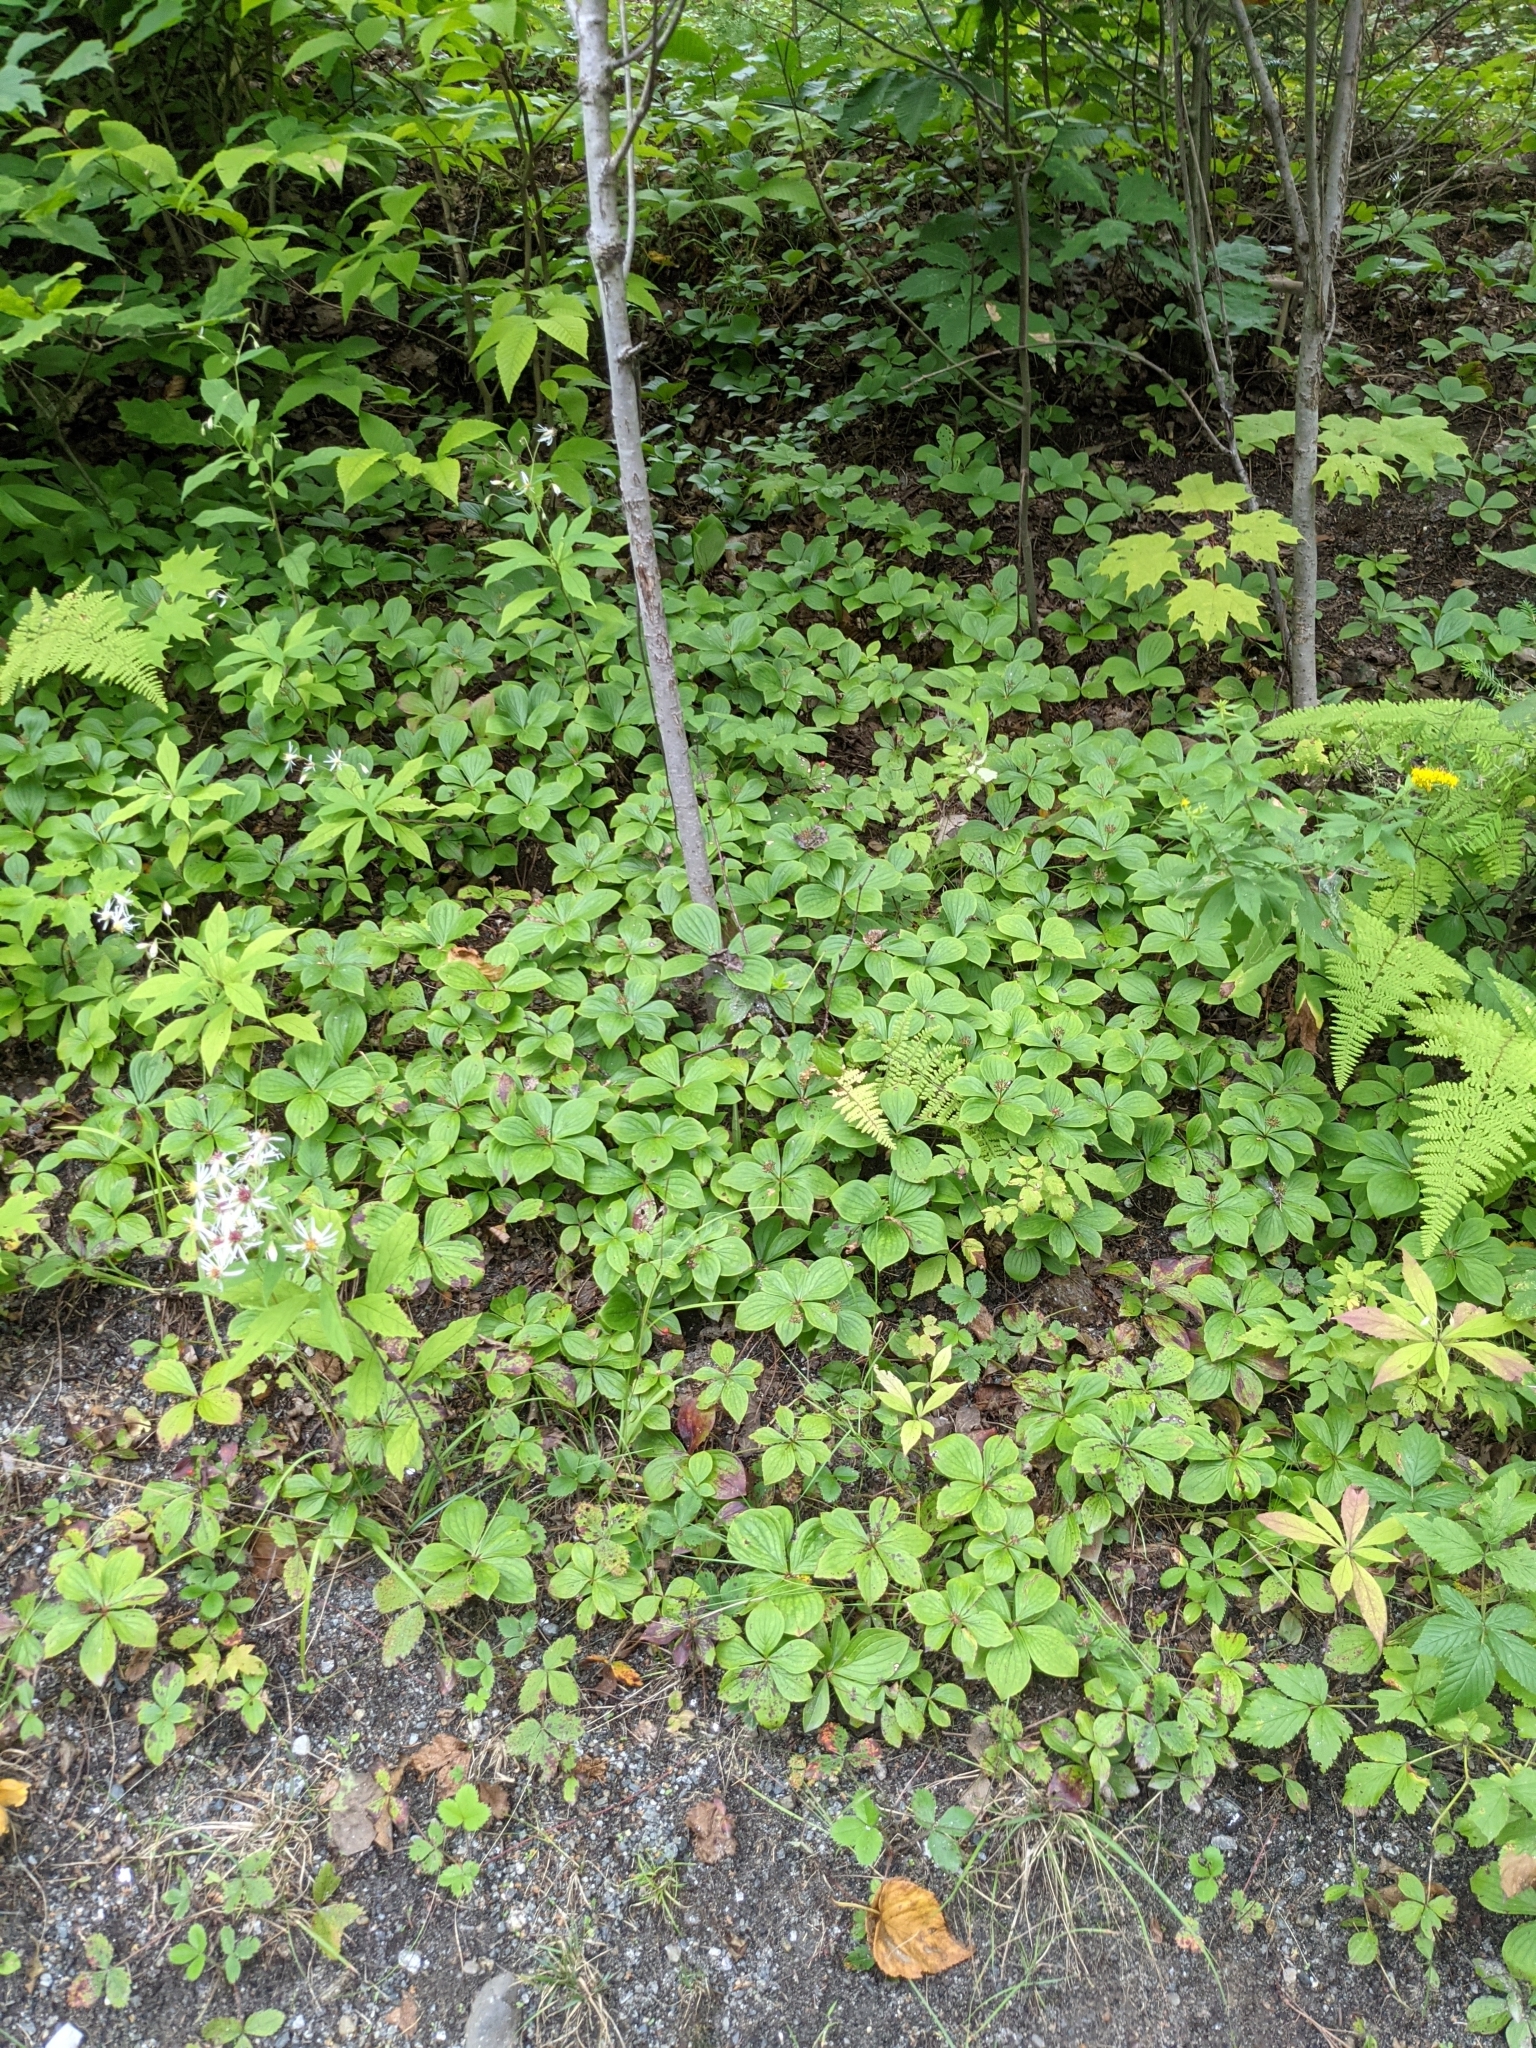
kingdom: Plantae
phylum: Tracheophyta
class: Magnoliopsida
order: Cornales
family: Cornaceae
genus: Cornus
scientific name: Cornus canadensis
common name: Creeping dogwood
